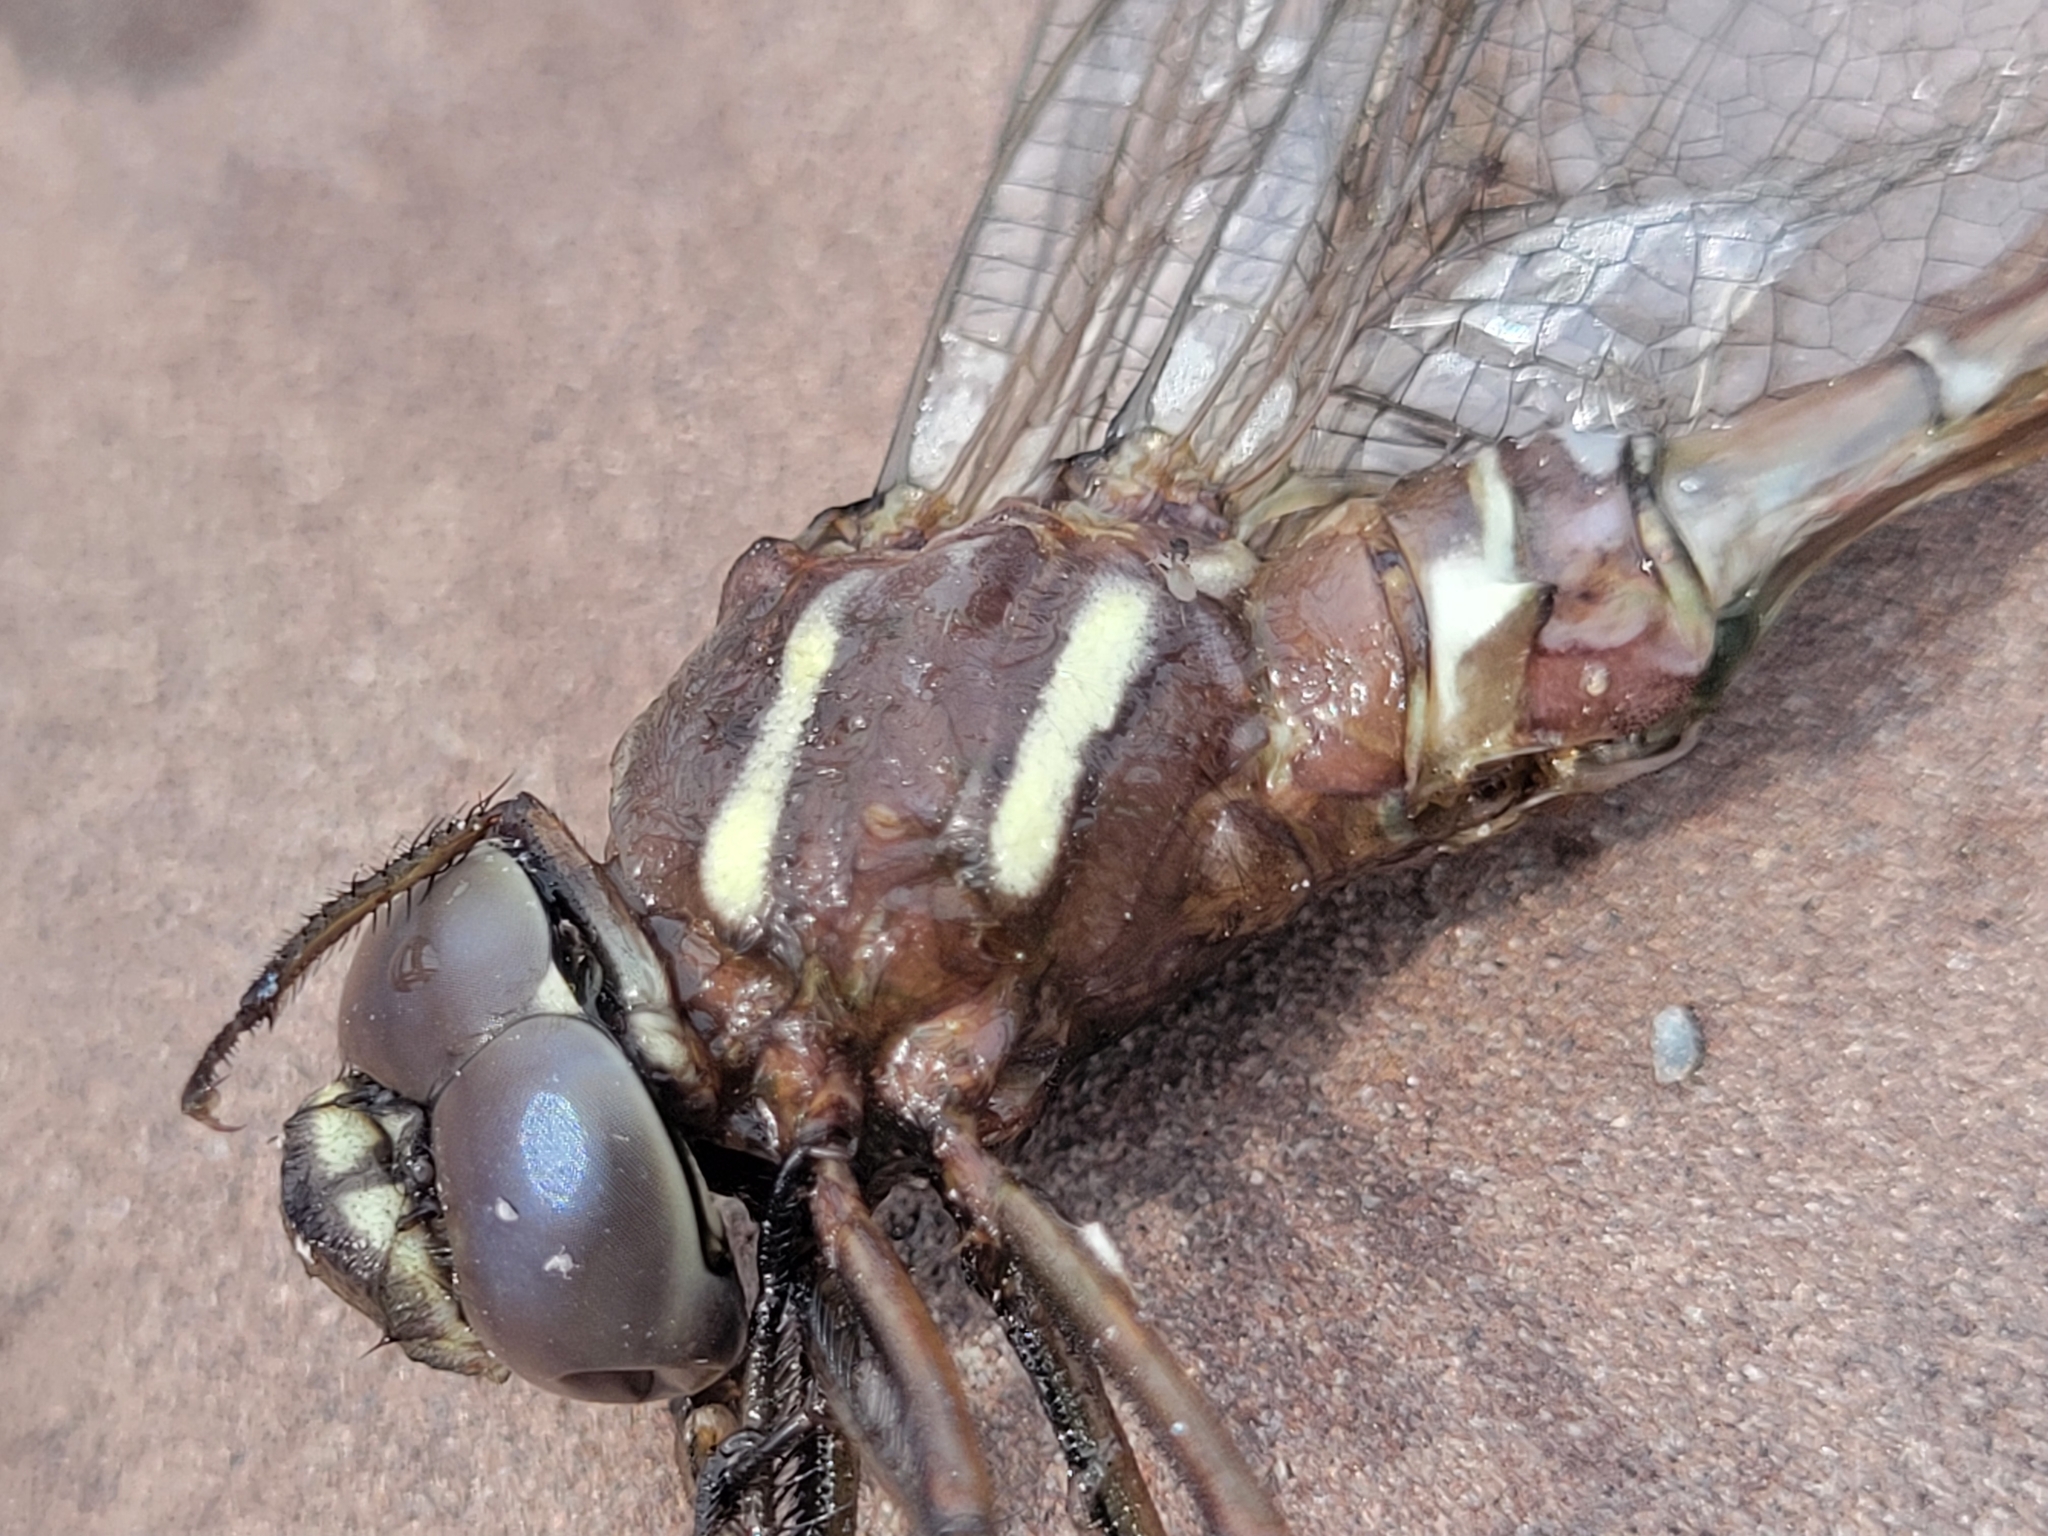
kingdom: Animalia
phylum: Arthropoda
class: Insecta
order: Odonata
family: Aeshnidae
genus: Aeshna
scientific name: Aeshna umbrosa
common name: Shadow darner
